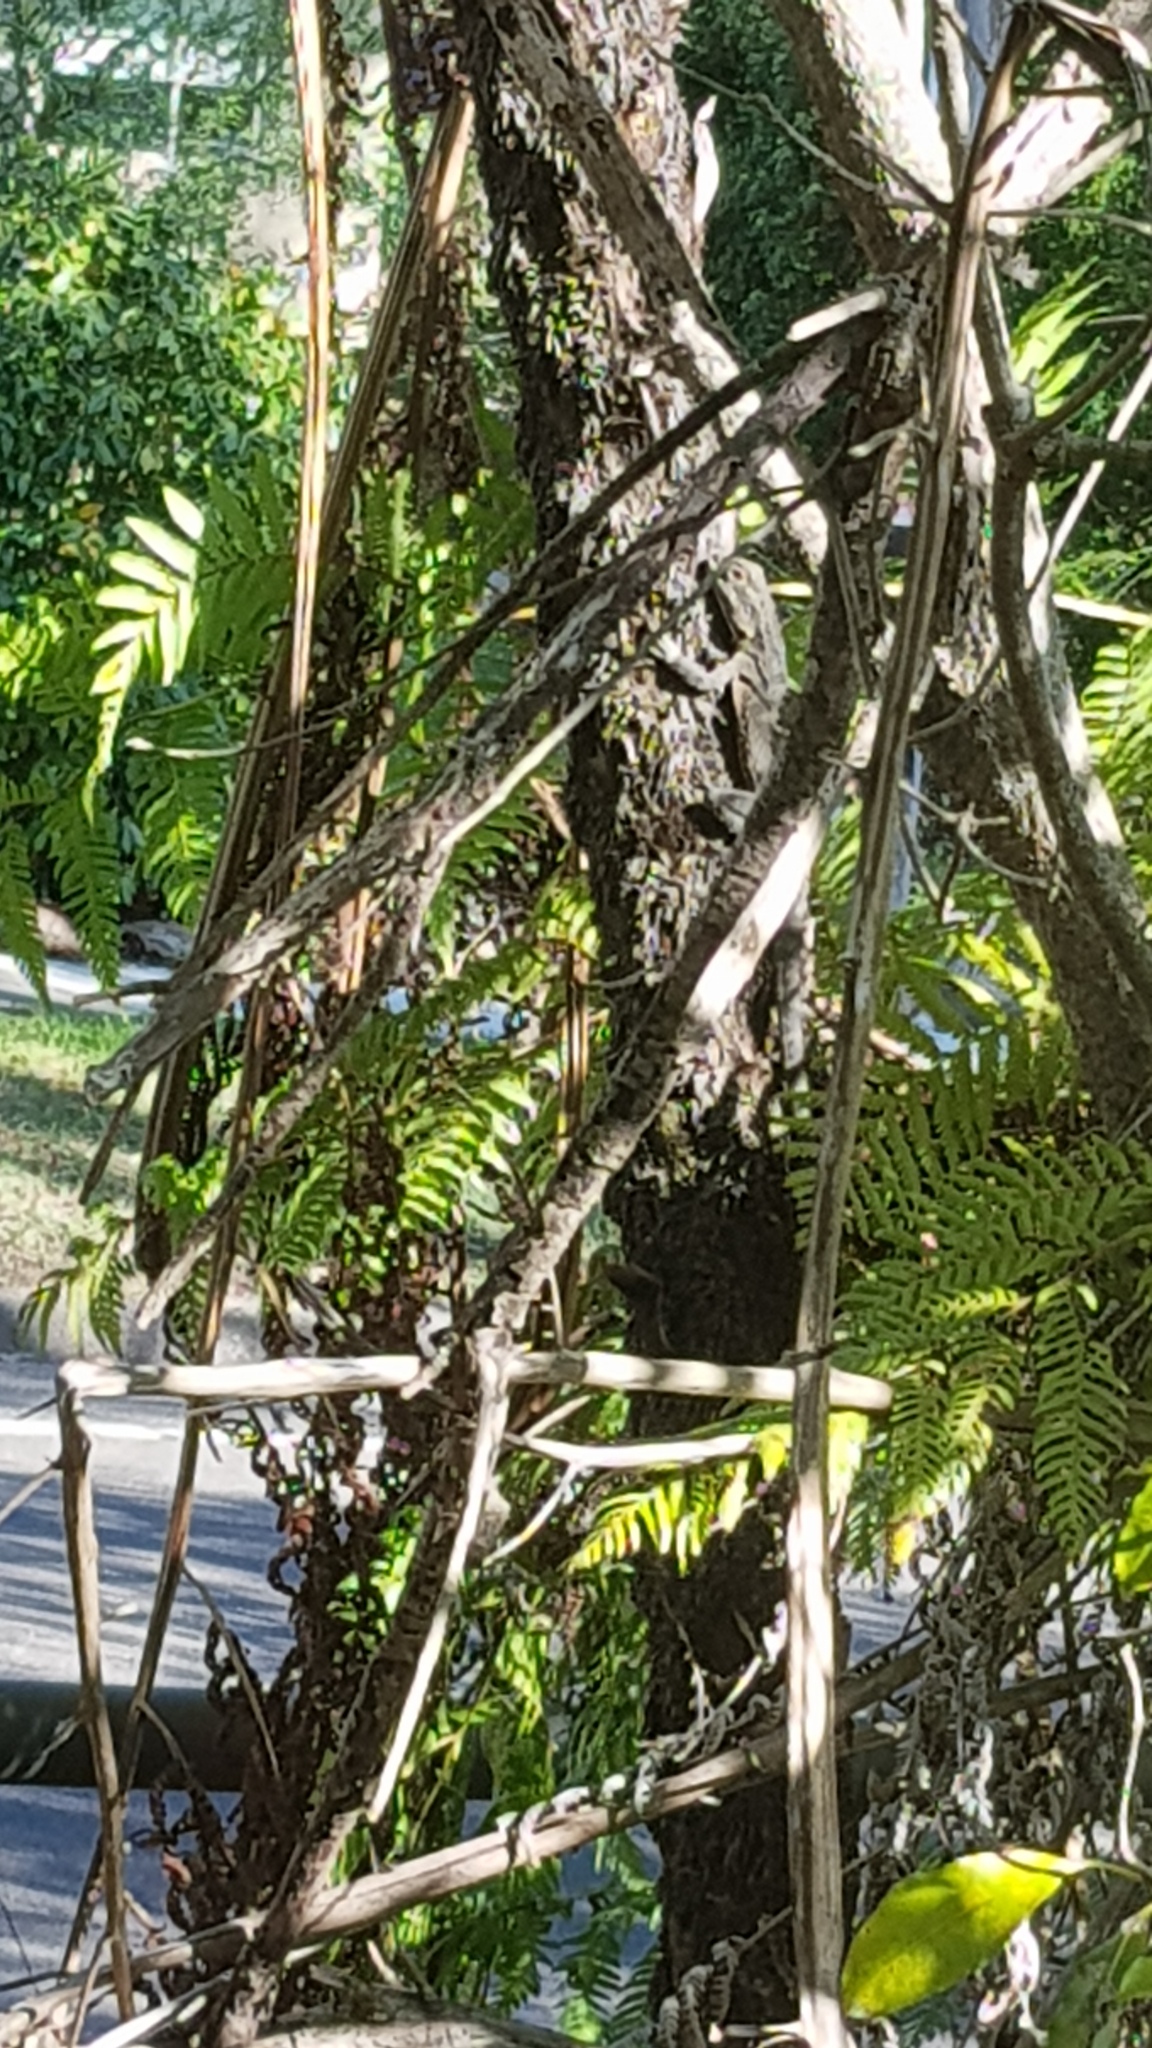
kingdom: Animalia
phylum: Chordata
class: Squamata
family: Agamidae
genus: Intellagama
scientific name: Intellagama lesueurii
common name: Eastern water dragon
